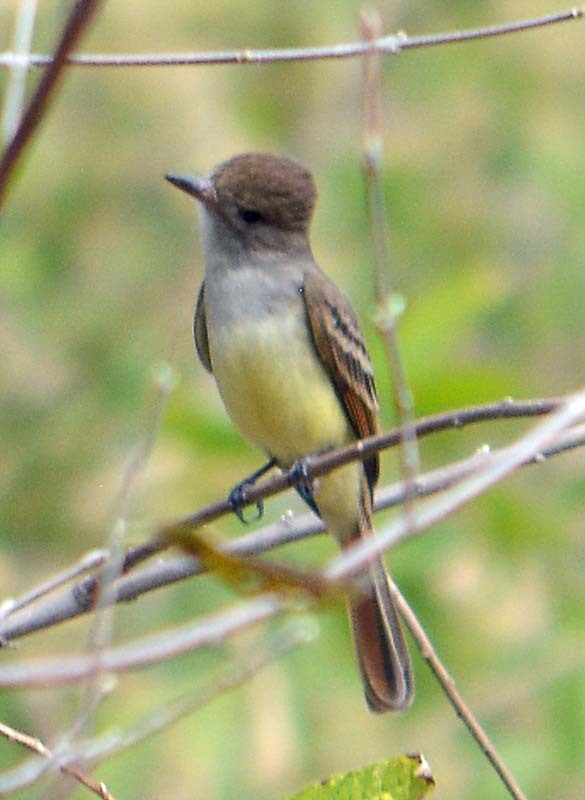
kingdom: Animalia
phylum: Chordata
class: Aves
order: Passeriformes
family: Tyrannidae
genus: Myiarchus
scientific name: Myiarchus tyrannulus
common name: Brown-crested flycatcher
